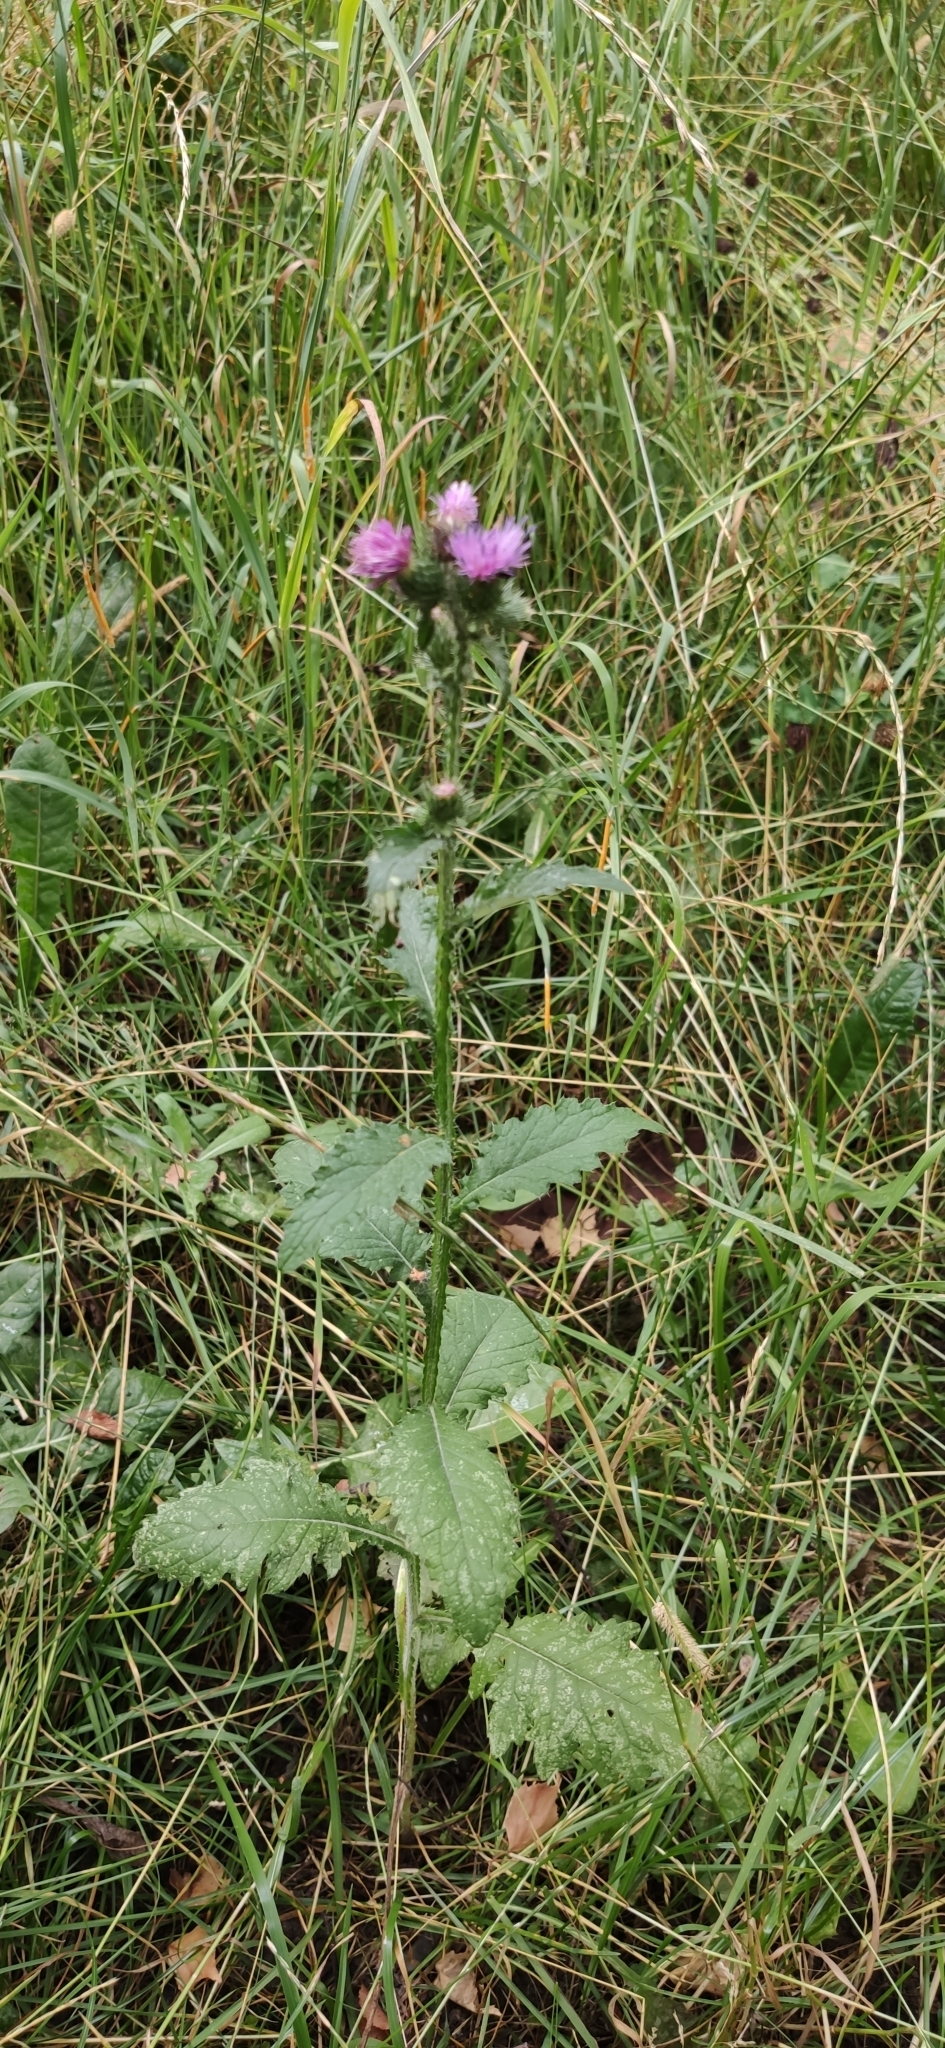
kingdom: Plantae
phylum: Tracheophyta
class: Magnoliopsida
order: Asterales
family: Asteraceae
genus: Carduus
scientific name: Carduus crispus
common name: Welted thistle
